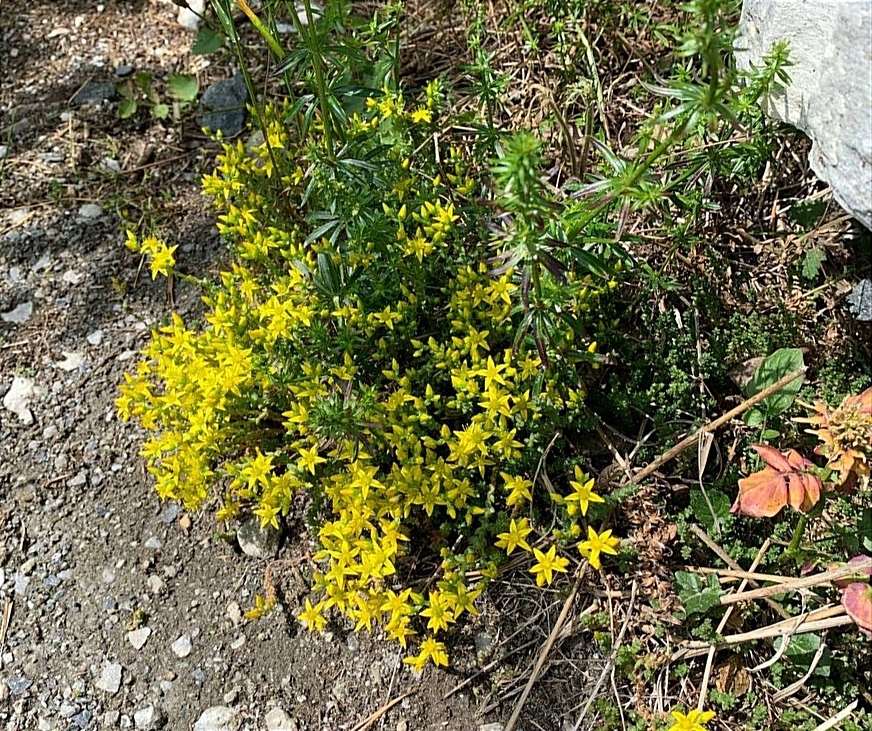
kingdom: Plantae
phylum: Tracheophyta
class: Magnoliopsida
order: Saxifragales
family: Crassulaceae
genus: Sedum
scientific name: Sedum acre
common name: Biting stonecrop
